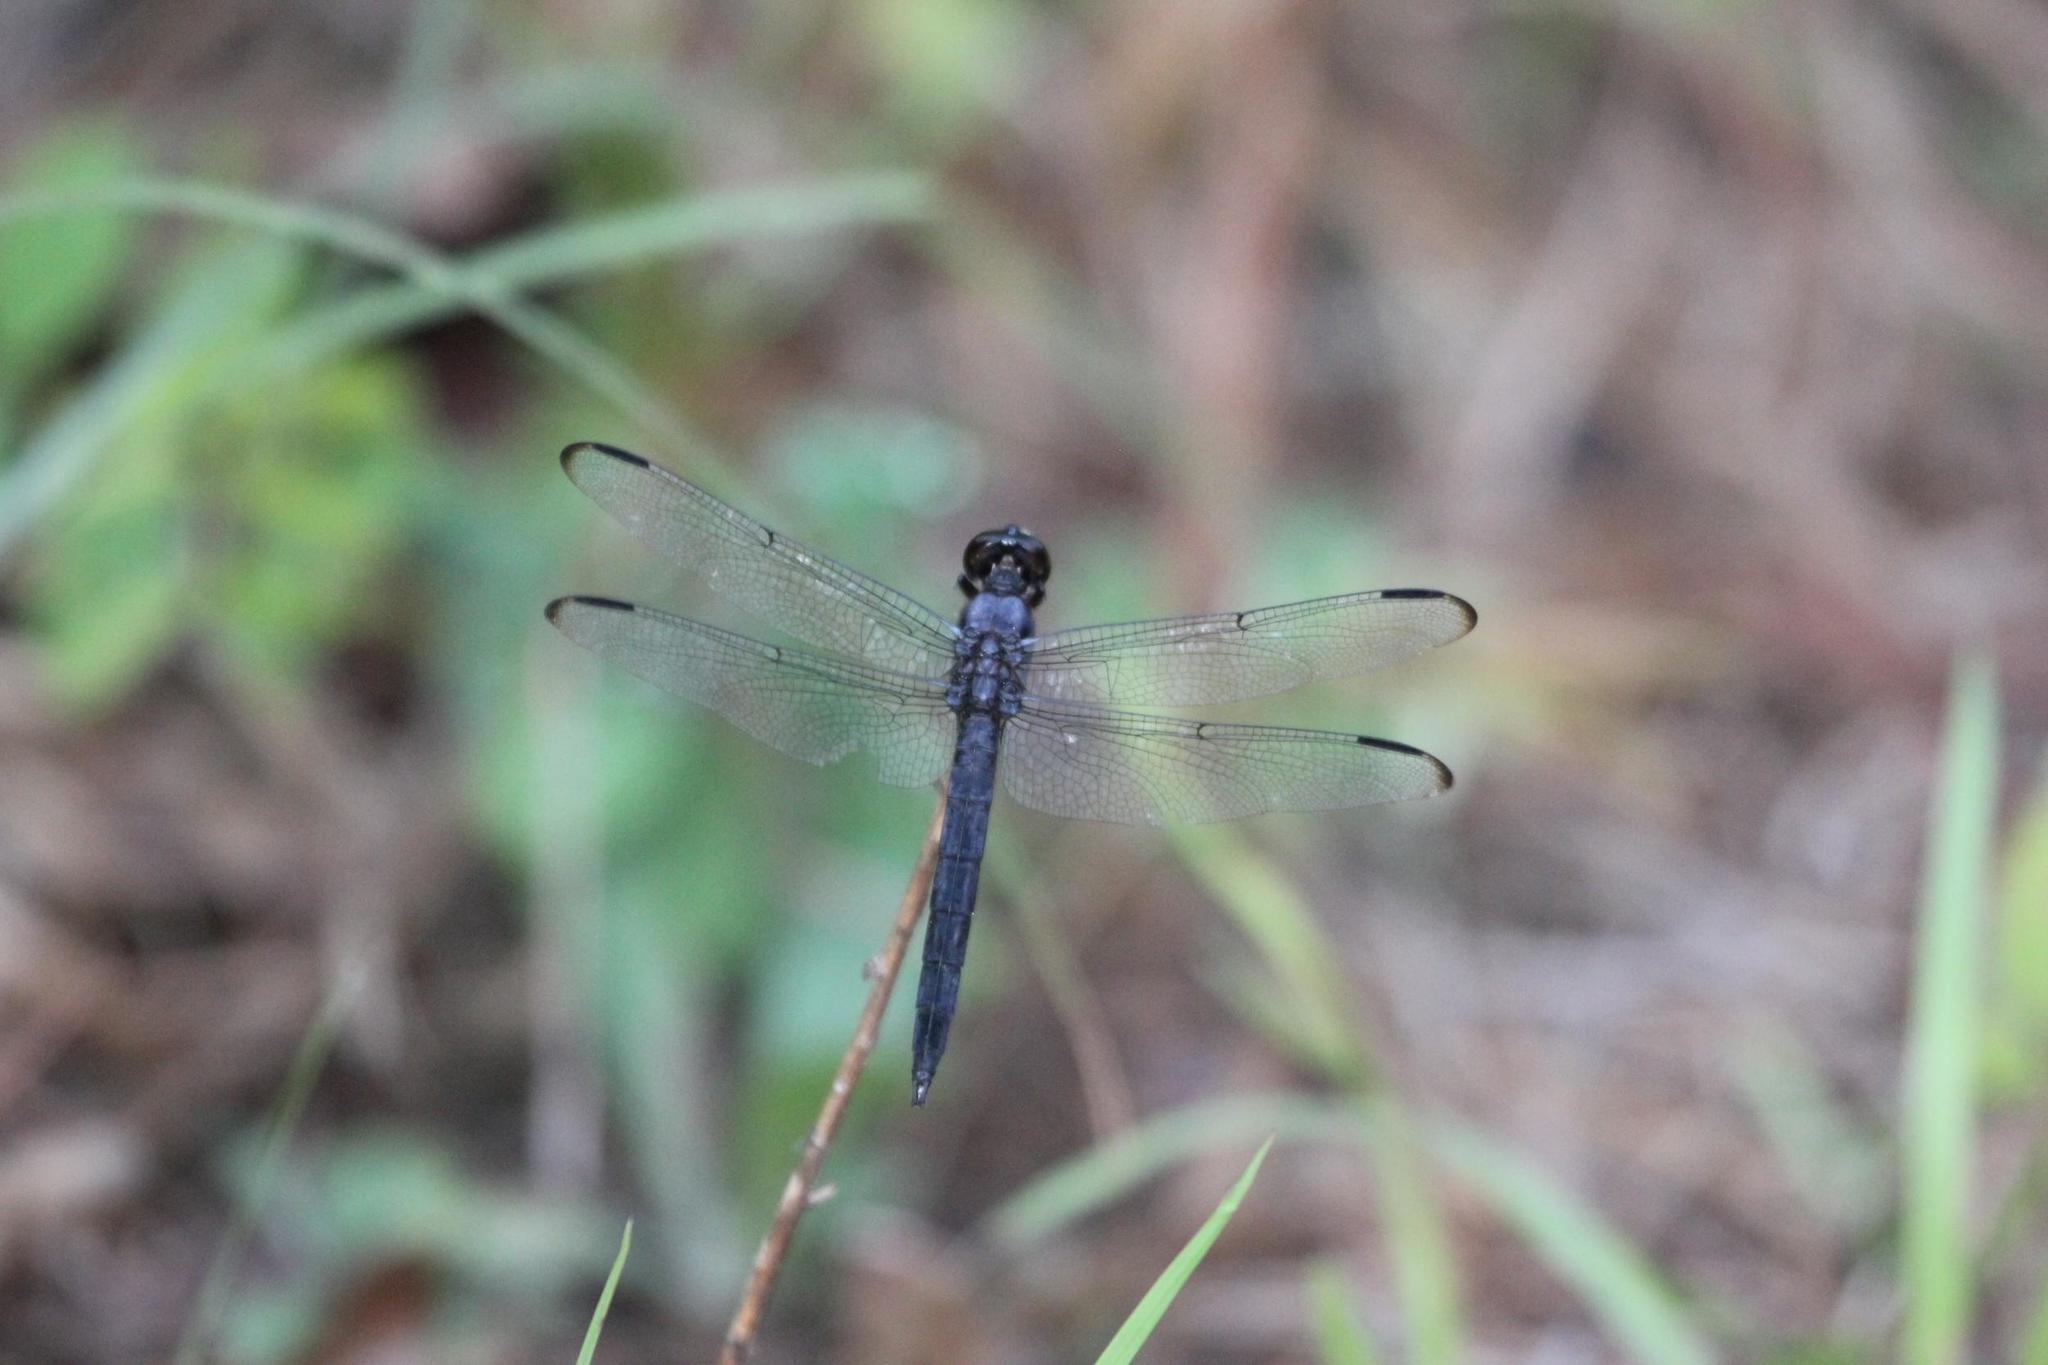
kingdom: Animalia
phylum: Arthropoda
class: Insecta
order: Odonata
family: Libellulidae
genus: Libellula
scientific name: Libellula incesta
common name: Slaty skimmer
